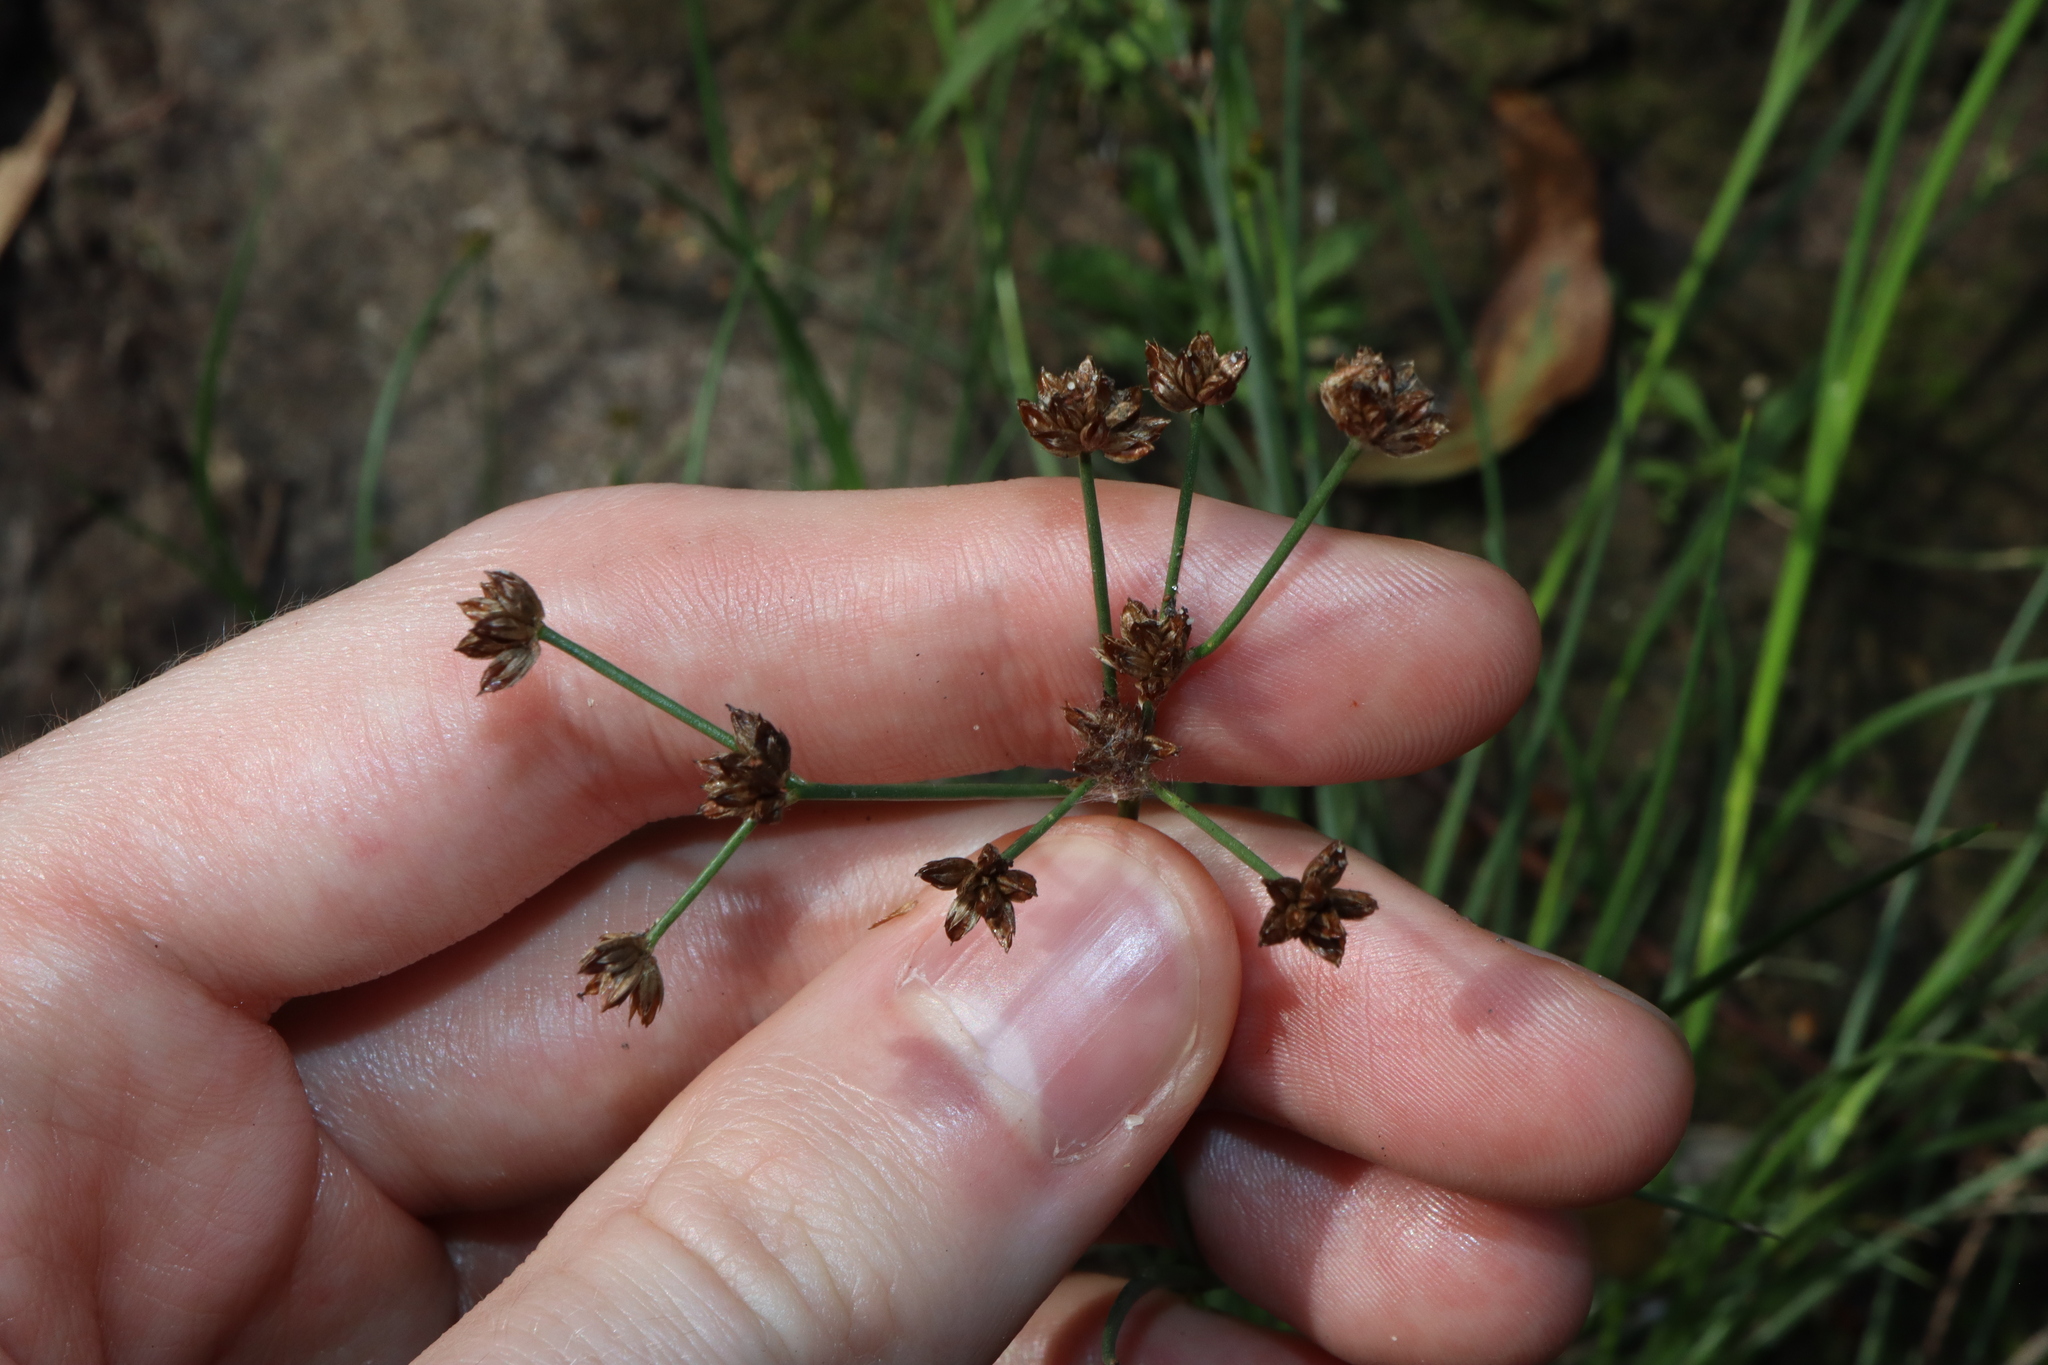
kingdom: Plantae
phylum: Tracheophyta
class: Liliopsida
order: Poales
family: Juncaceae
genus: Juncus
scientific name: Juncus articulatus
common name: Jointed rush
